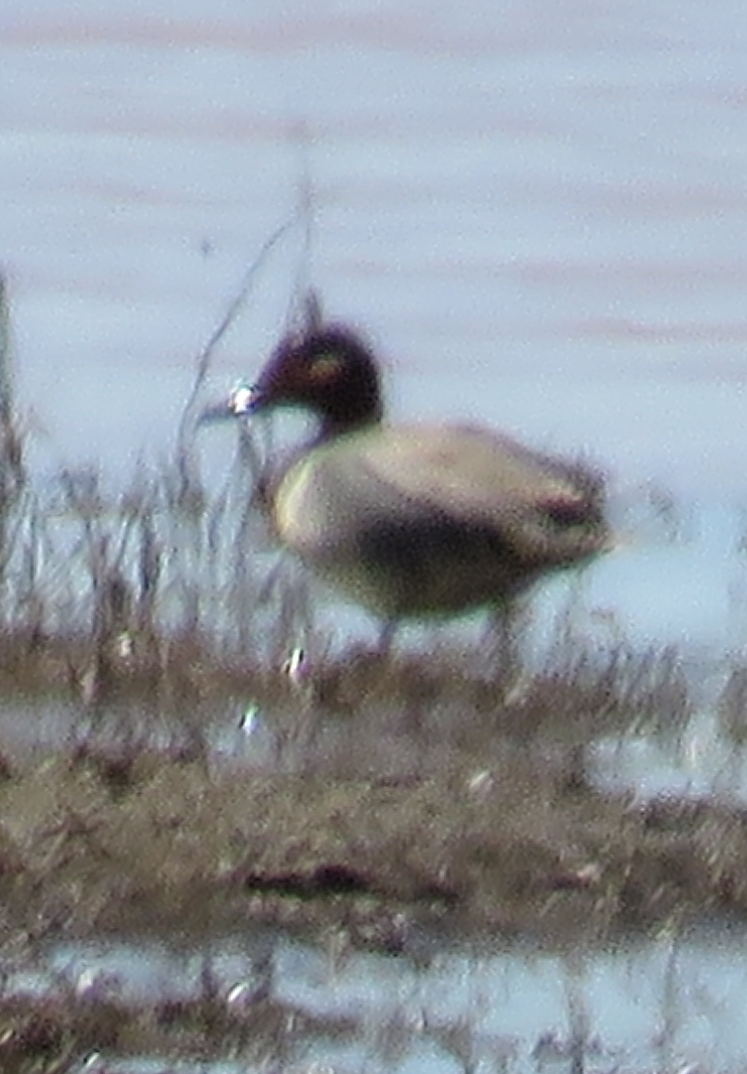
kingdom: Animalia
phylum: Chordata
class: Aves
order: Anseriformes
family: Anatidae
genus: Anas
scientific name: Anas crecca
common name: Eurasian teal
